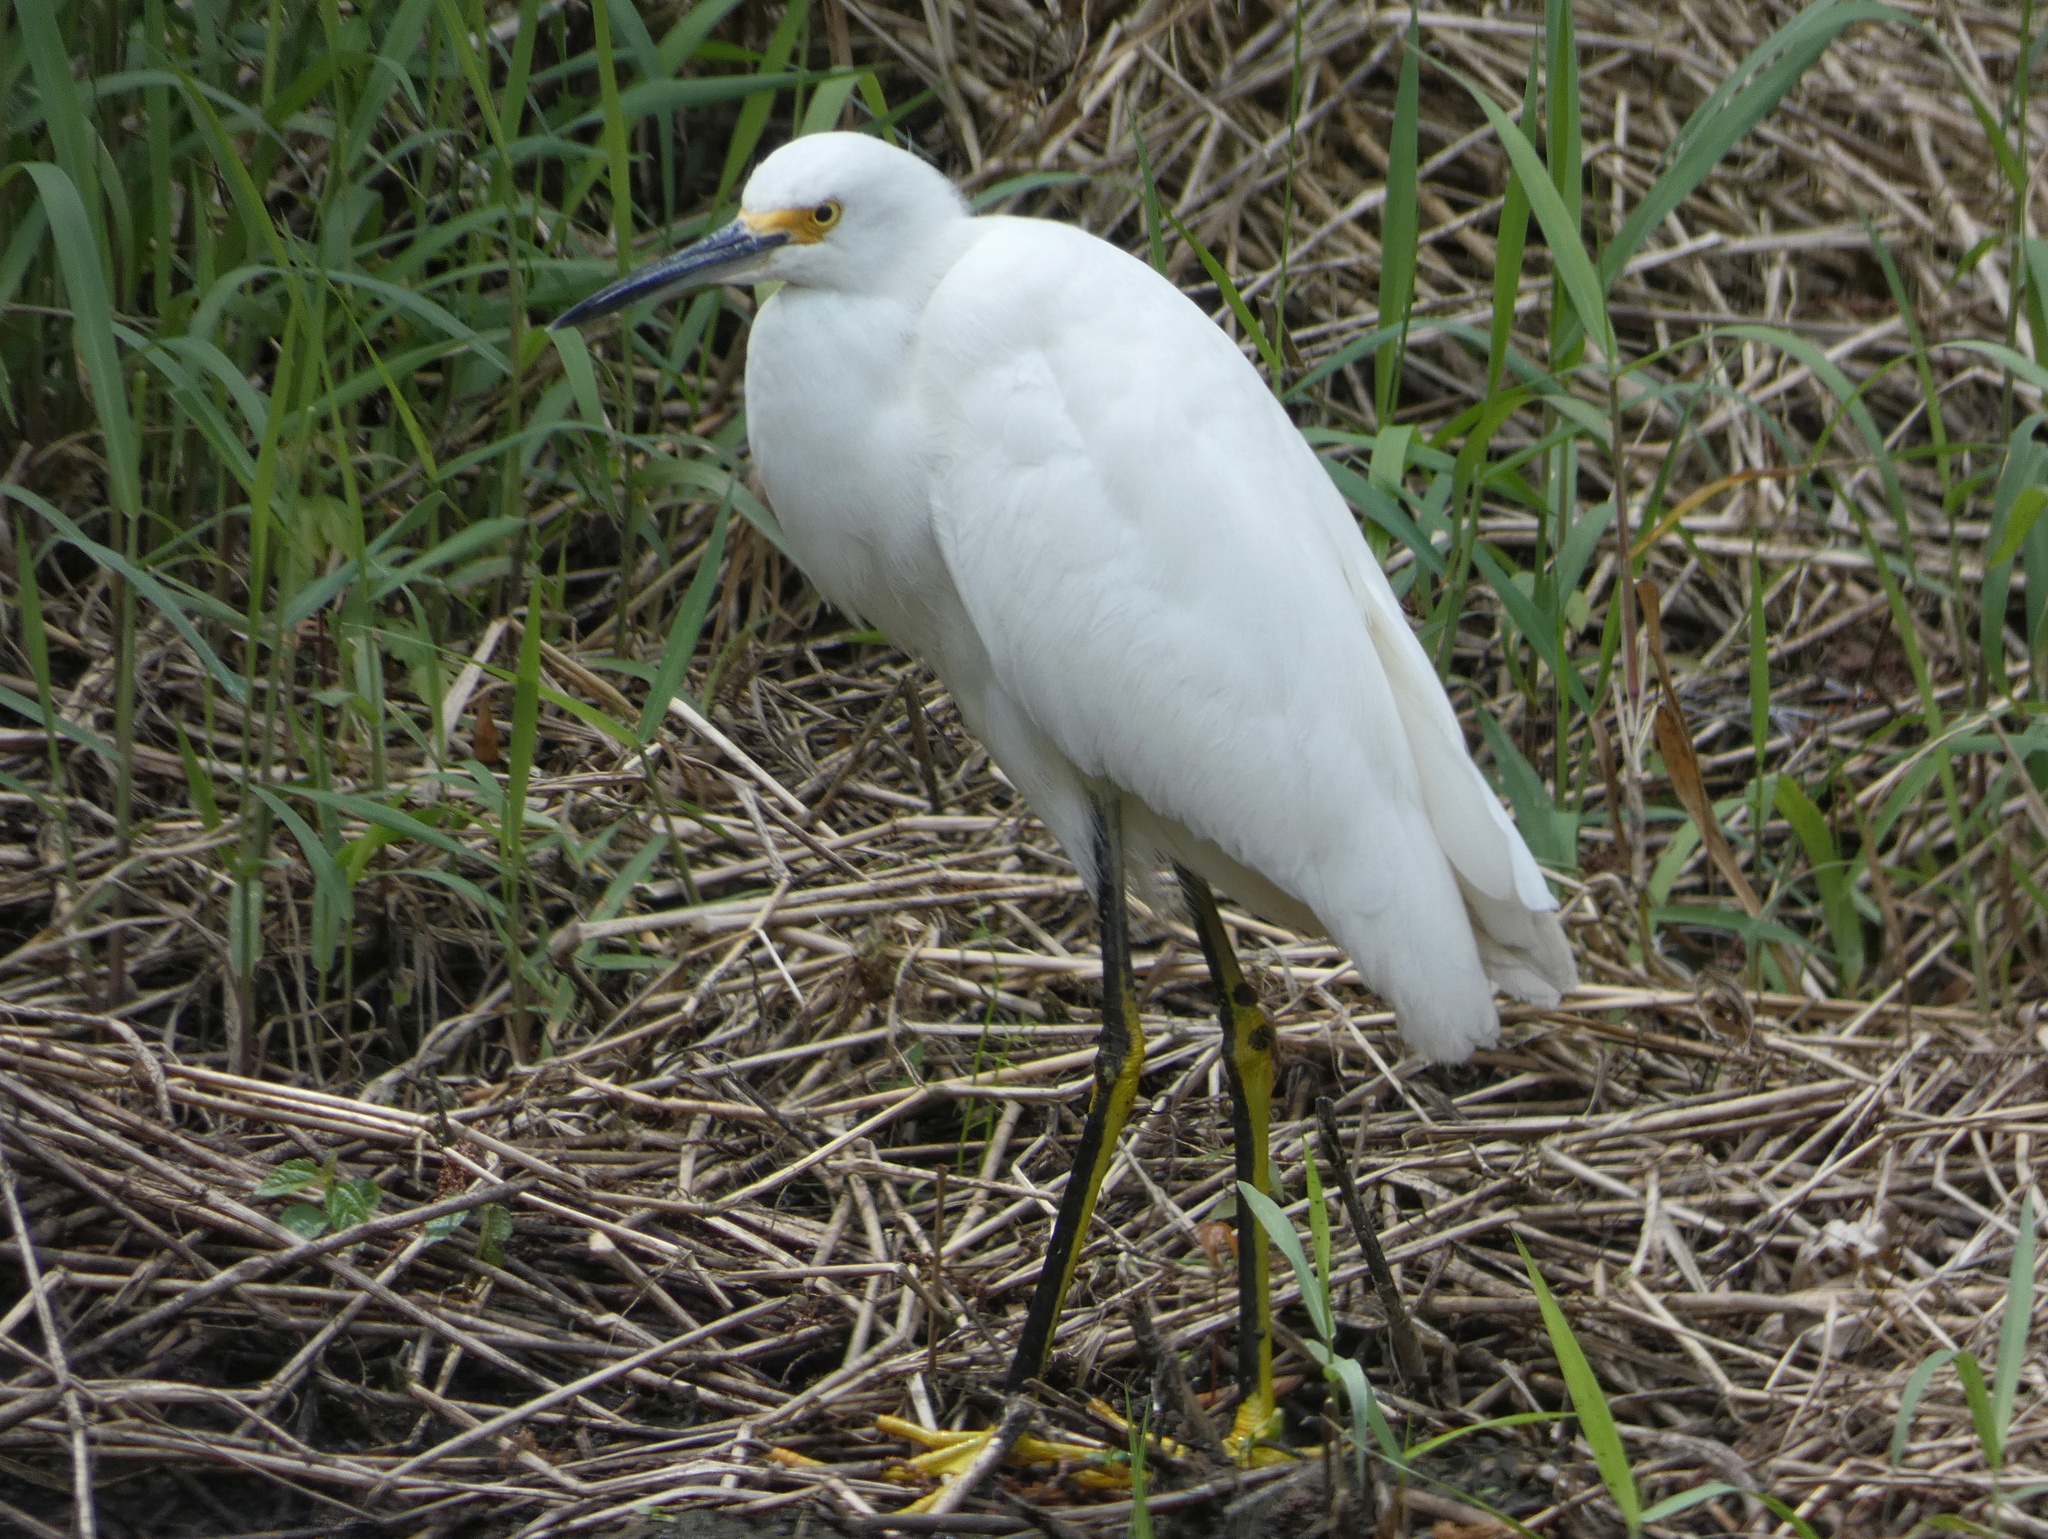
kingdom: Animalia
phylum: Chordata
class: Aves
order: Pelecaniformes
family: Ardeidae
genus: Egretta
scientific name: Egretta thula
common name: Snowy egret
